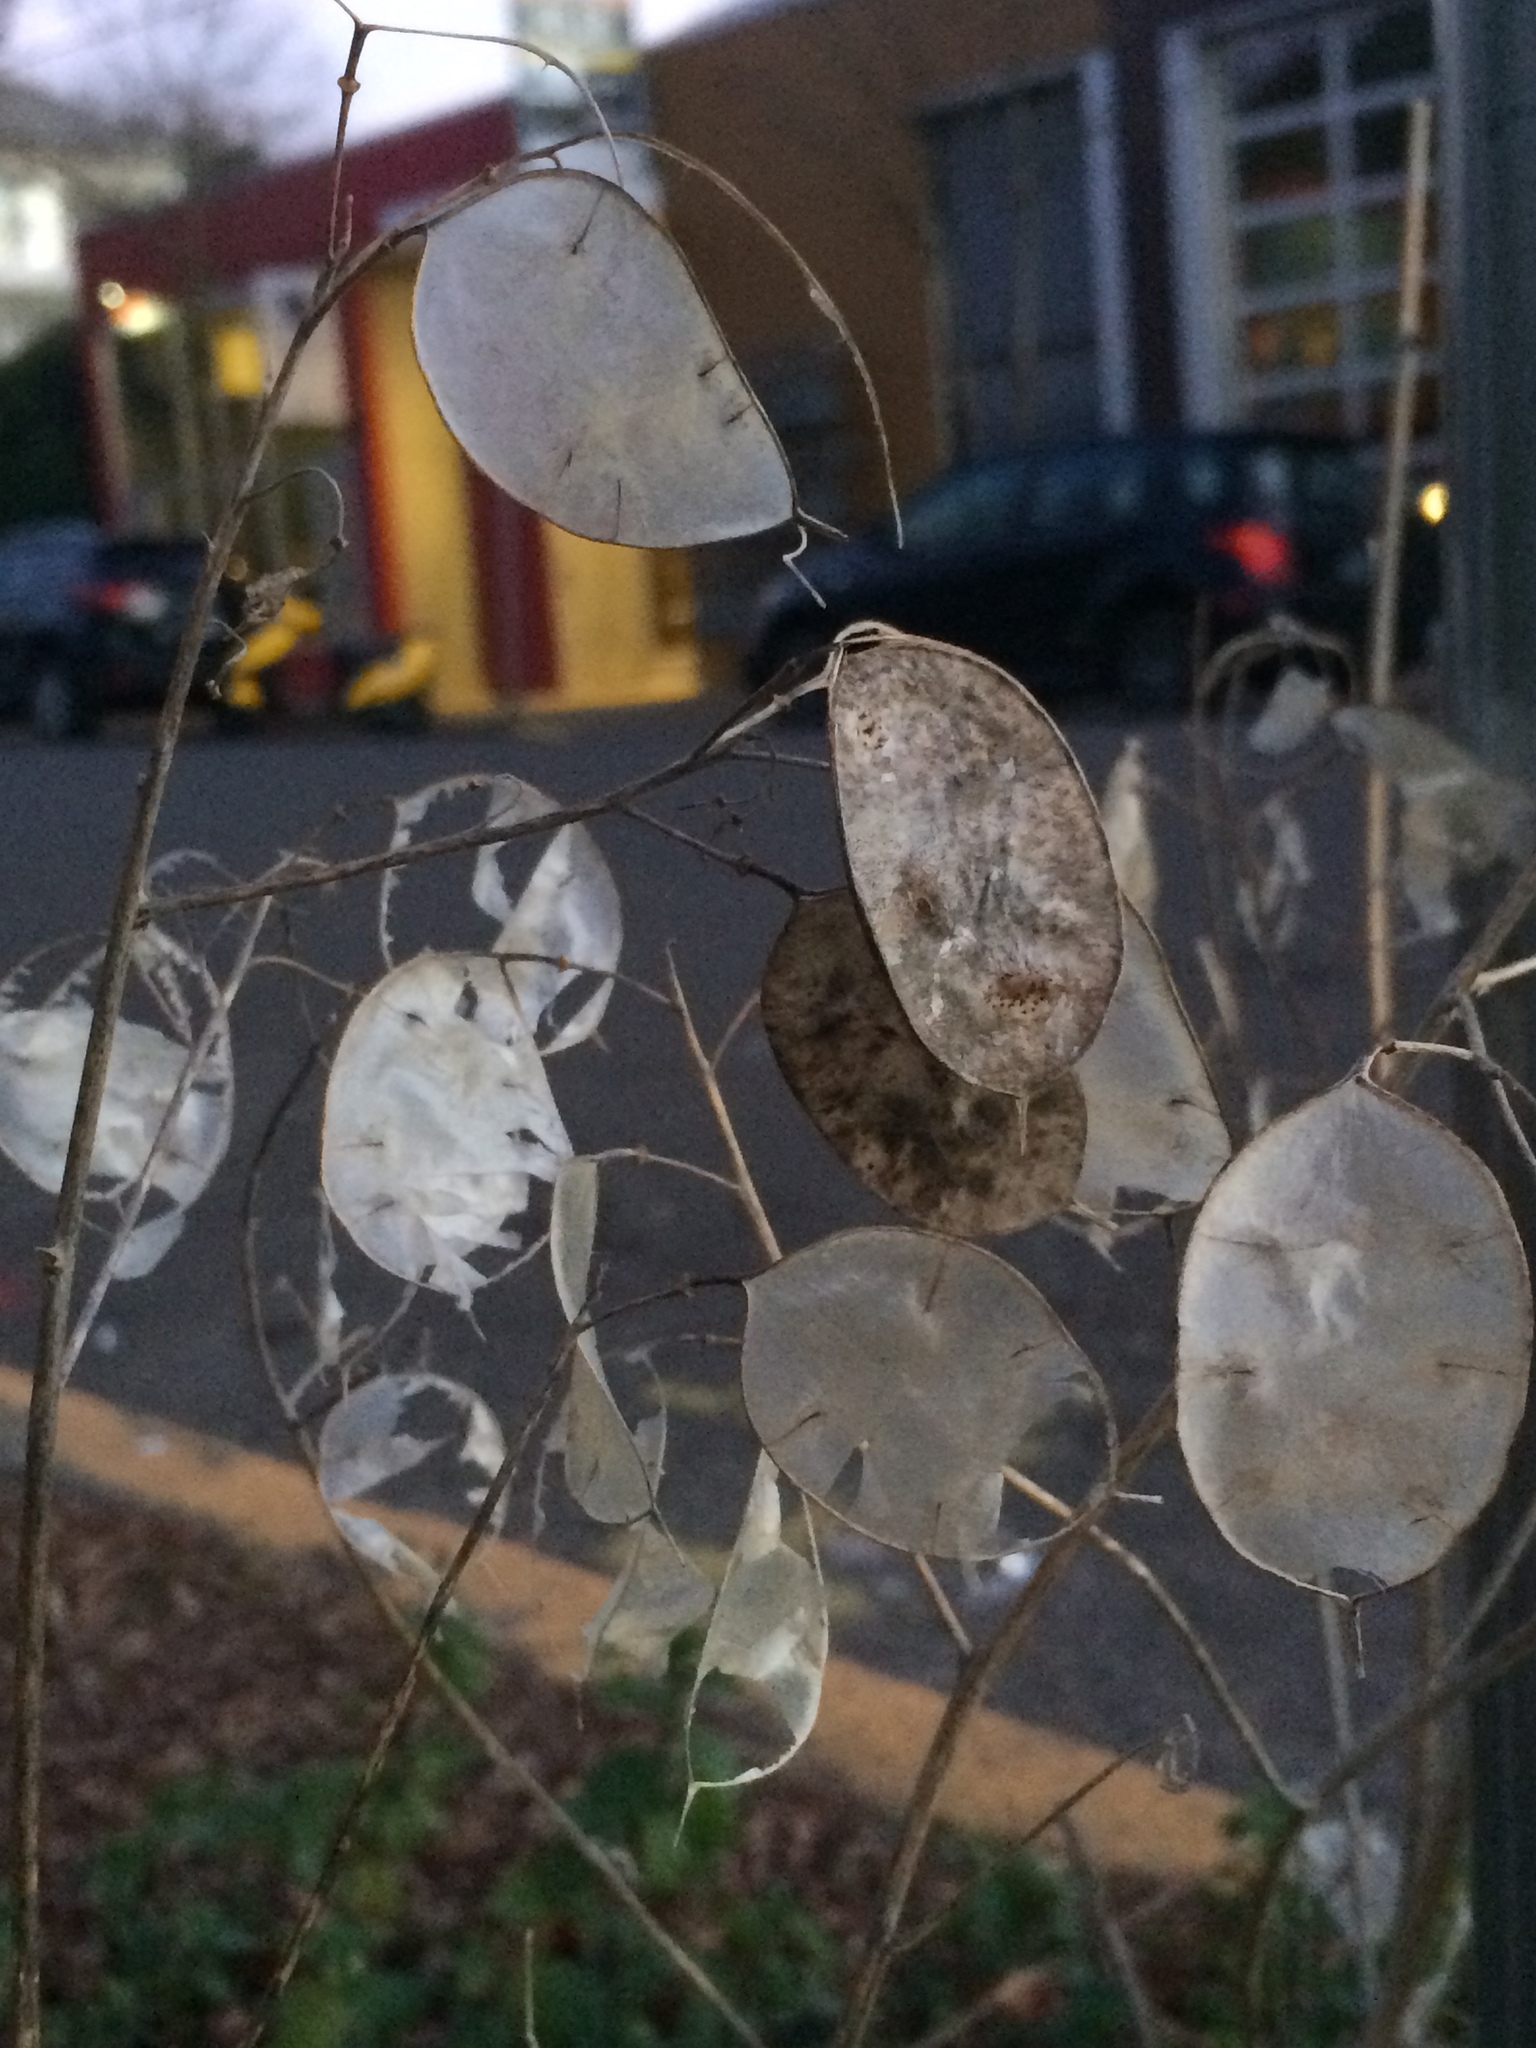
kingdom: Plantae
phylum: Tracheophyta
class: Magnoliopsida
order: Brassicales
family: Brassicaceae
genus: Lunaria
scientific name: Lunaria annua
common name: Honesty
